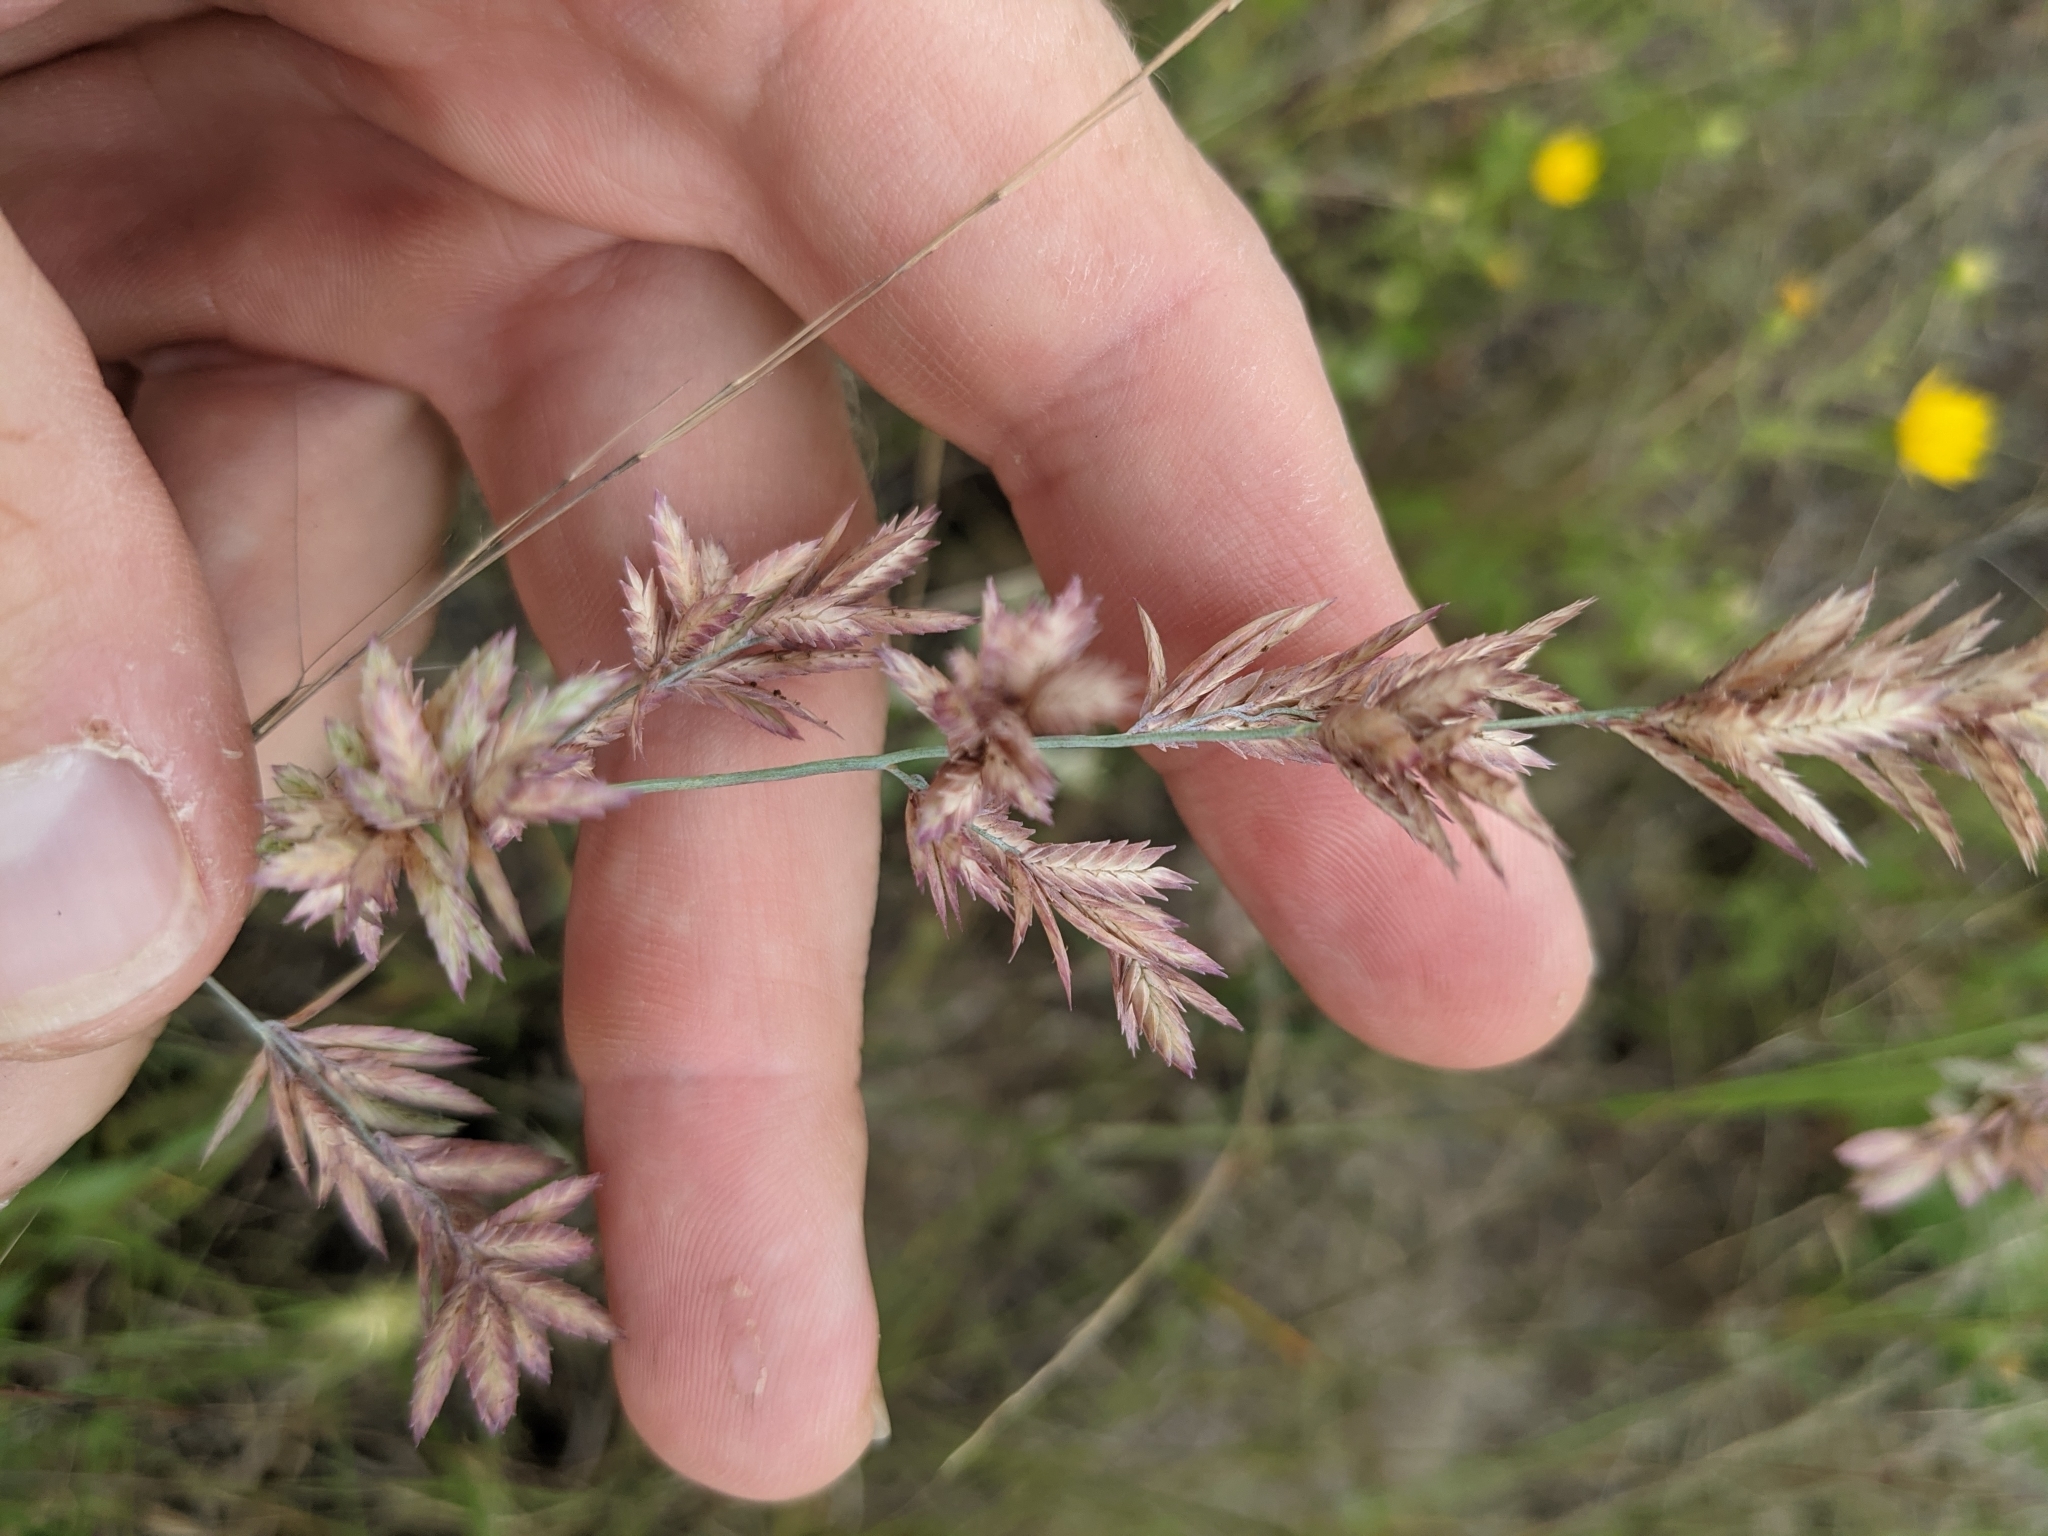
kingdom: Plantae
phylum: Tracheophyta
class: Liliopsida
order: Poales
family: Poaceae
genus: Eragrostis
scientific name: Eragrostis secundiflora
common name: Red love grass
